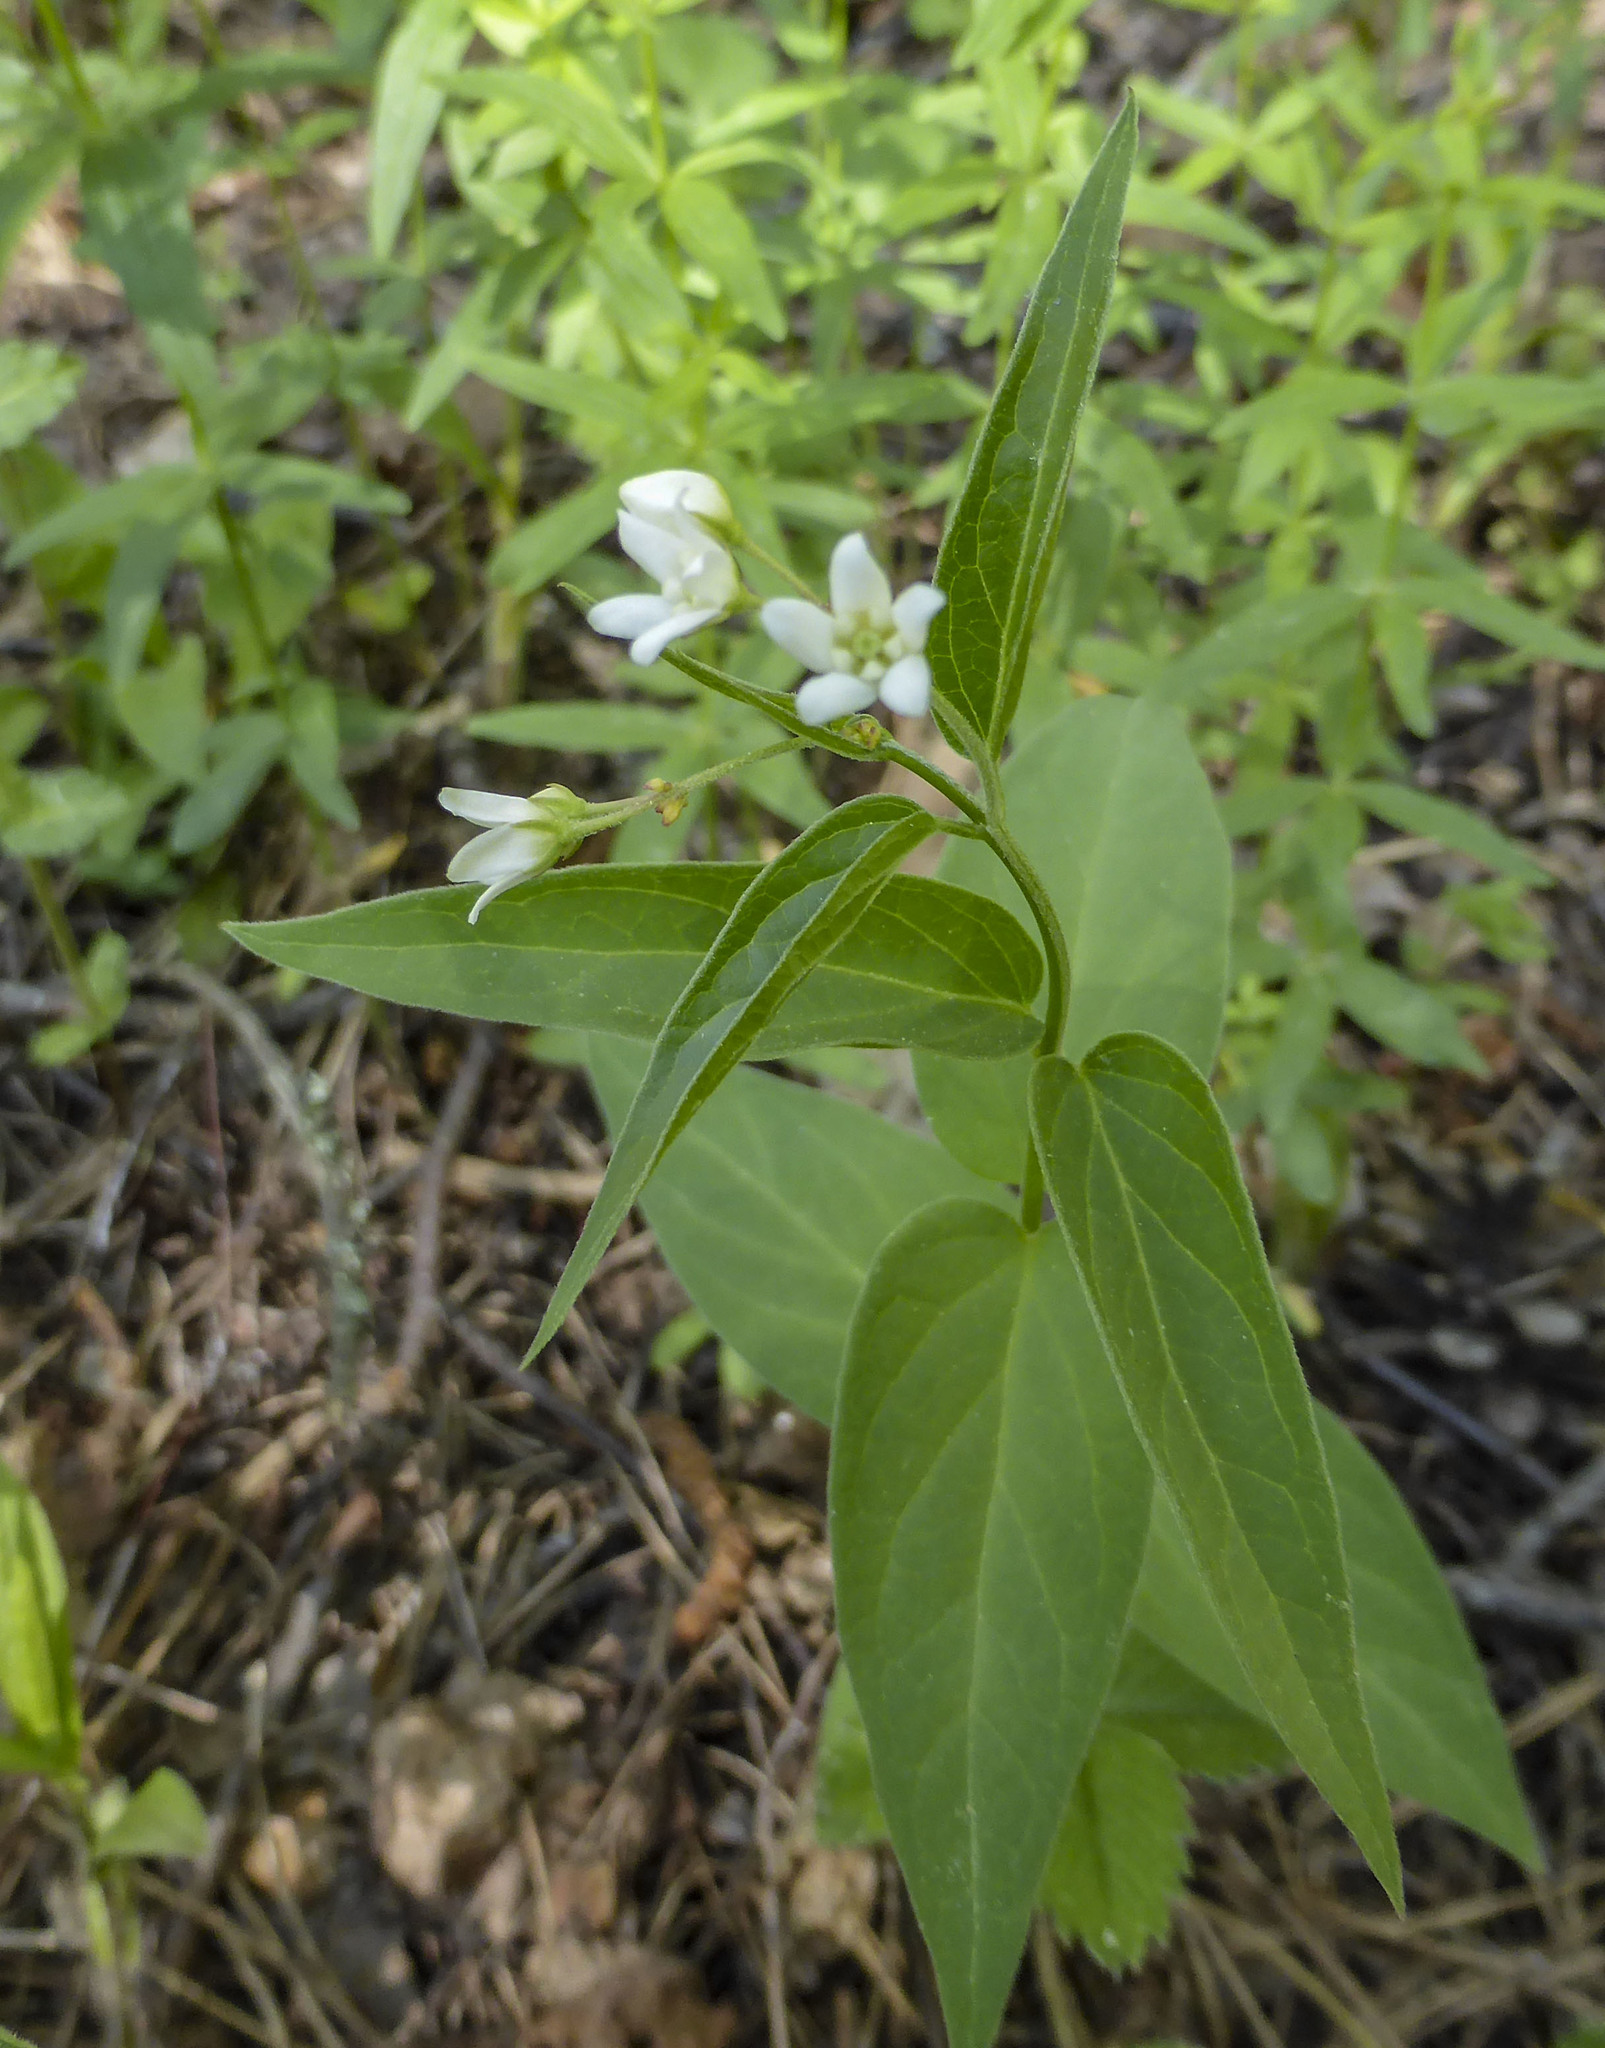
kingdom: Plantae
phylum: Tracheophyta
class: Magnoliopsida
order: Gentianales
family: Apocynaceae
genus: Vincetoxicum
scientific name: Vincetoxicum hirundinaria
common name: White swallowwort
